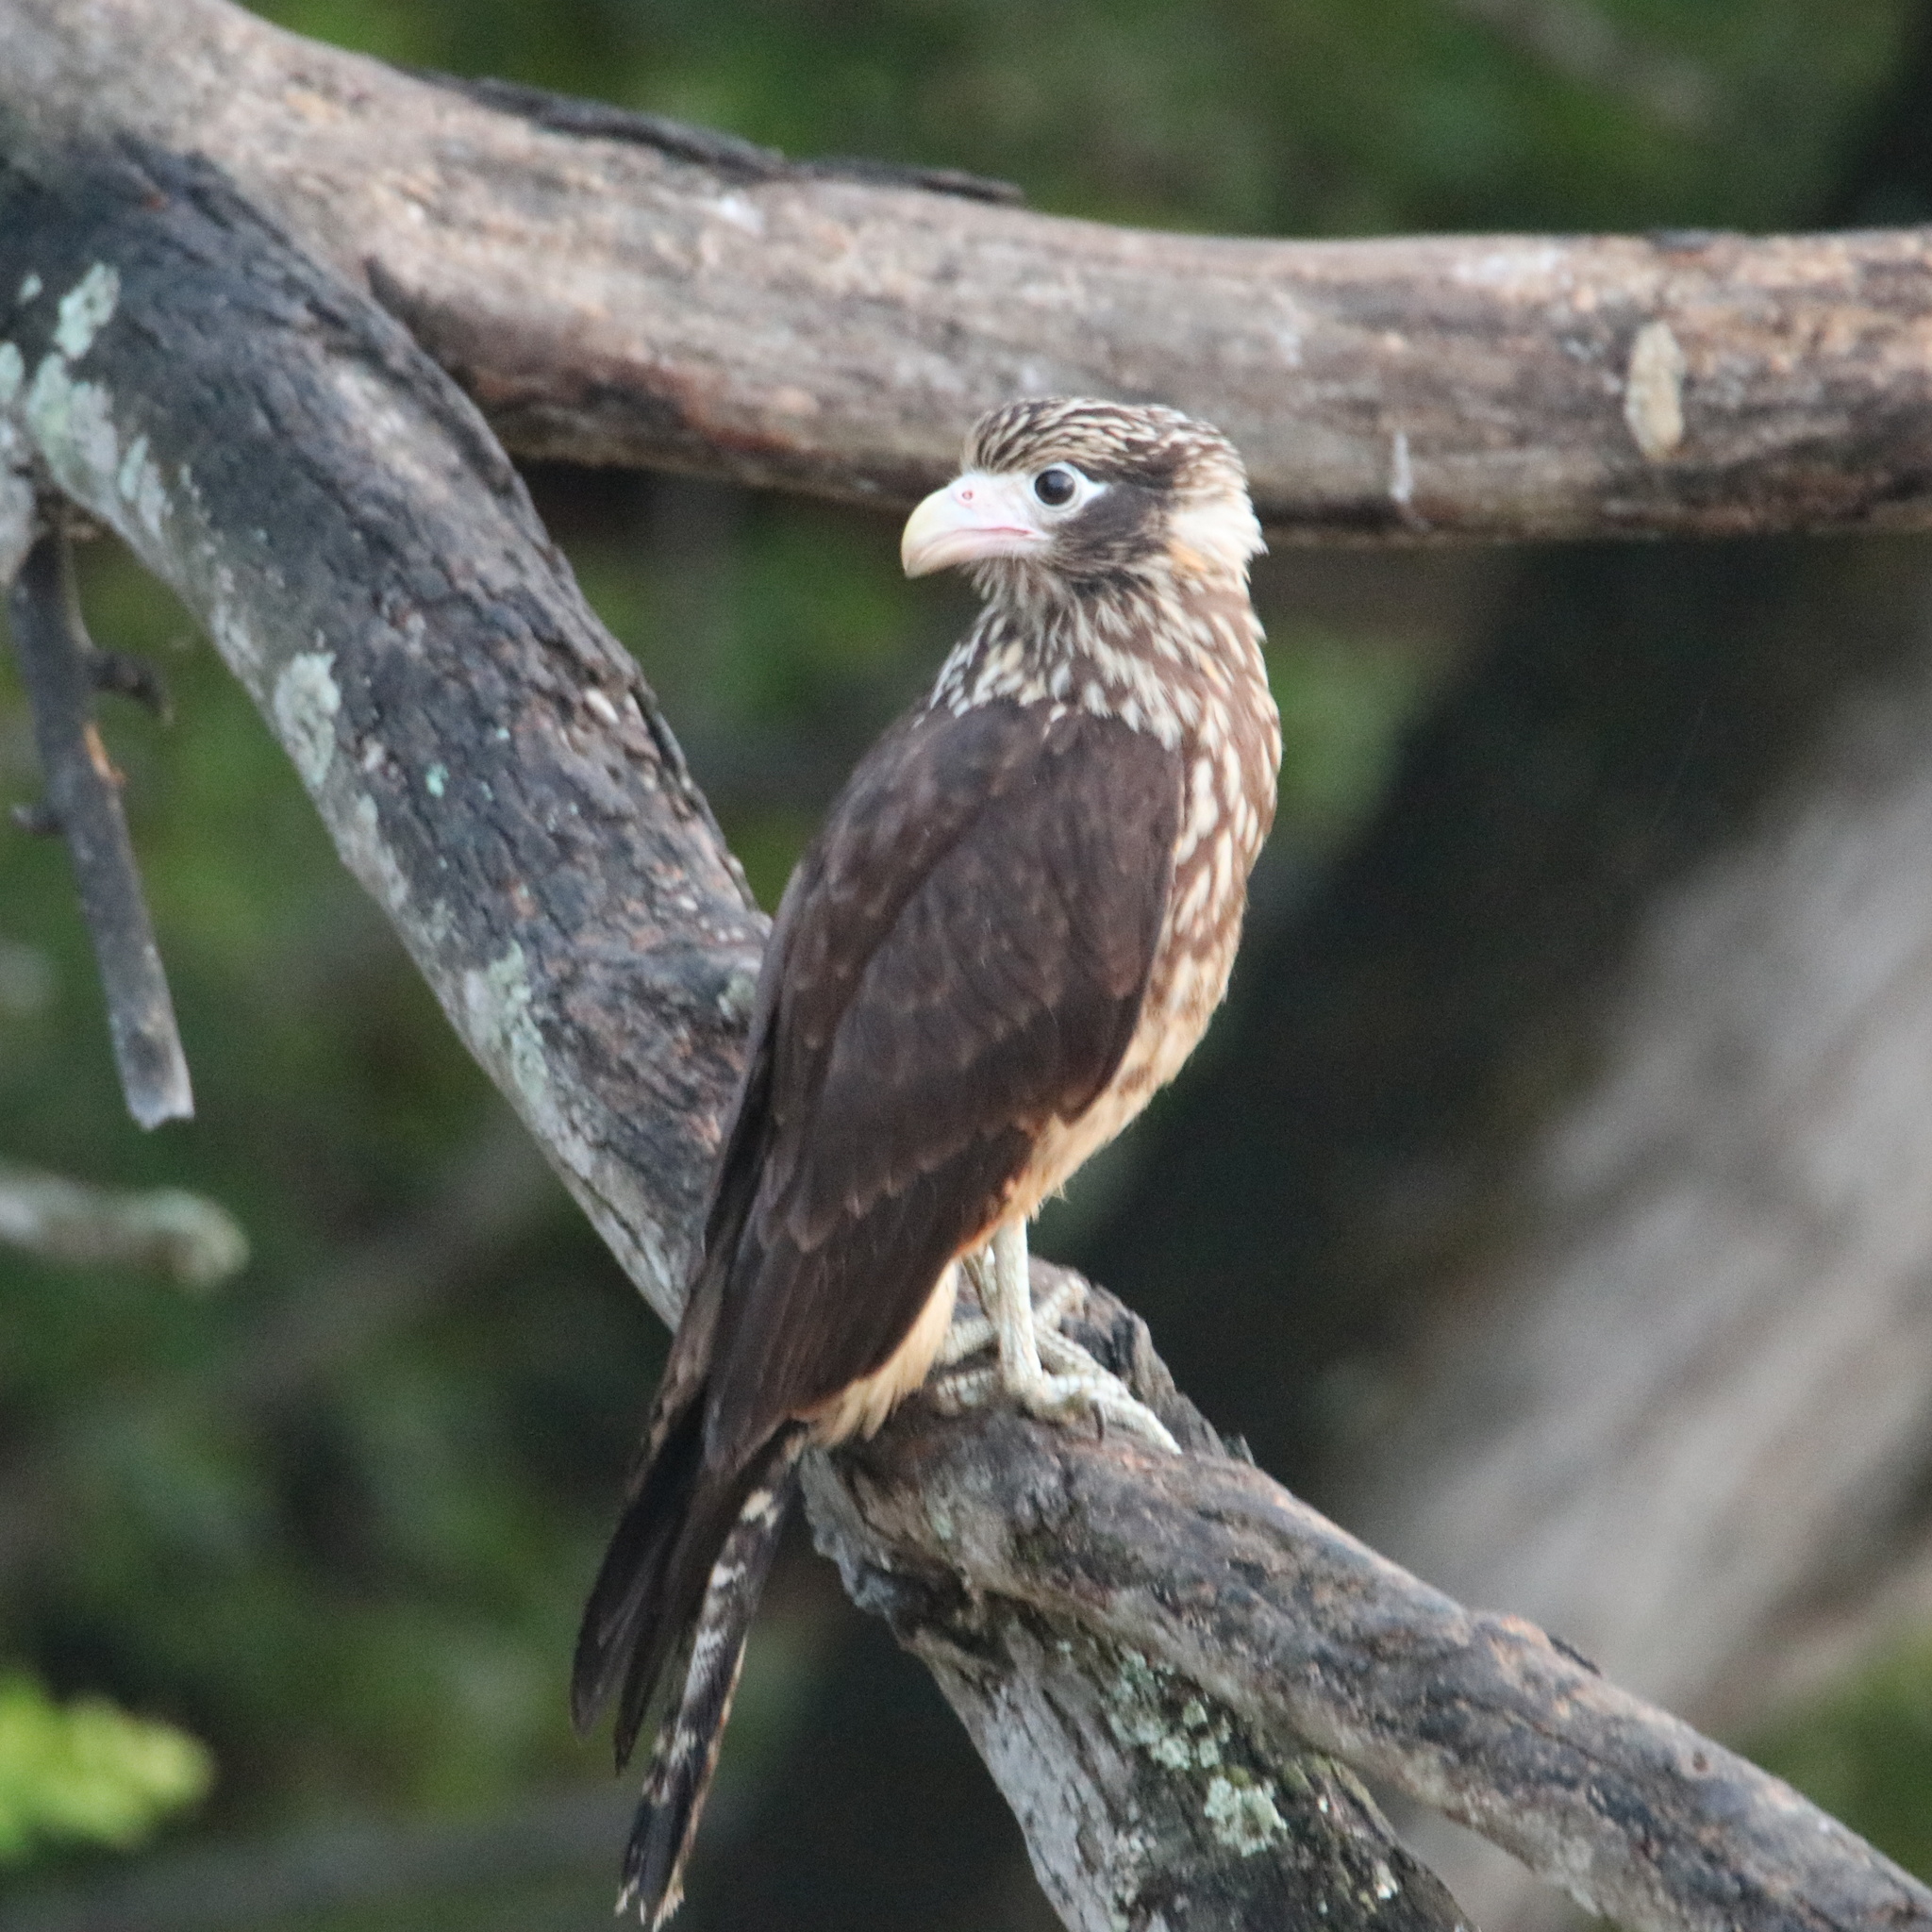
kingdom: Animalia
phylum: Chordata
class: Aves
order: Falconiformes
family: Falconidae
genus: Daptrius
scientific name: Daptrius
